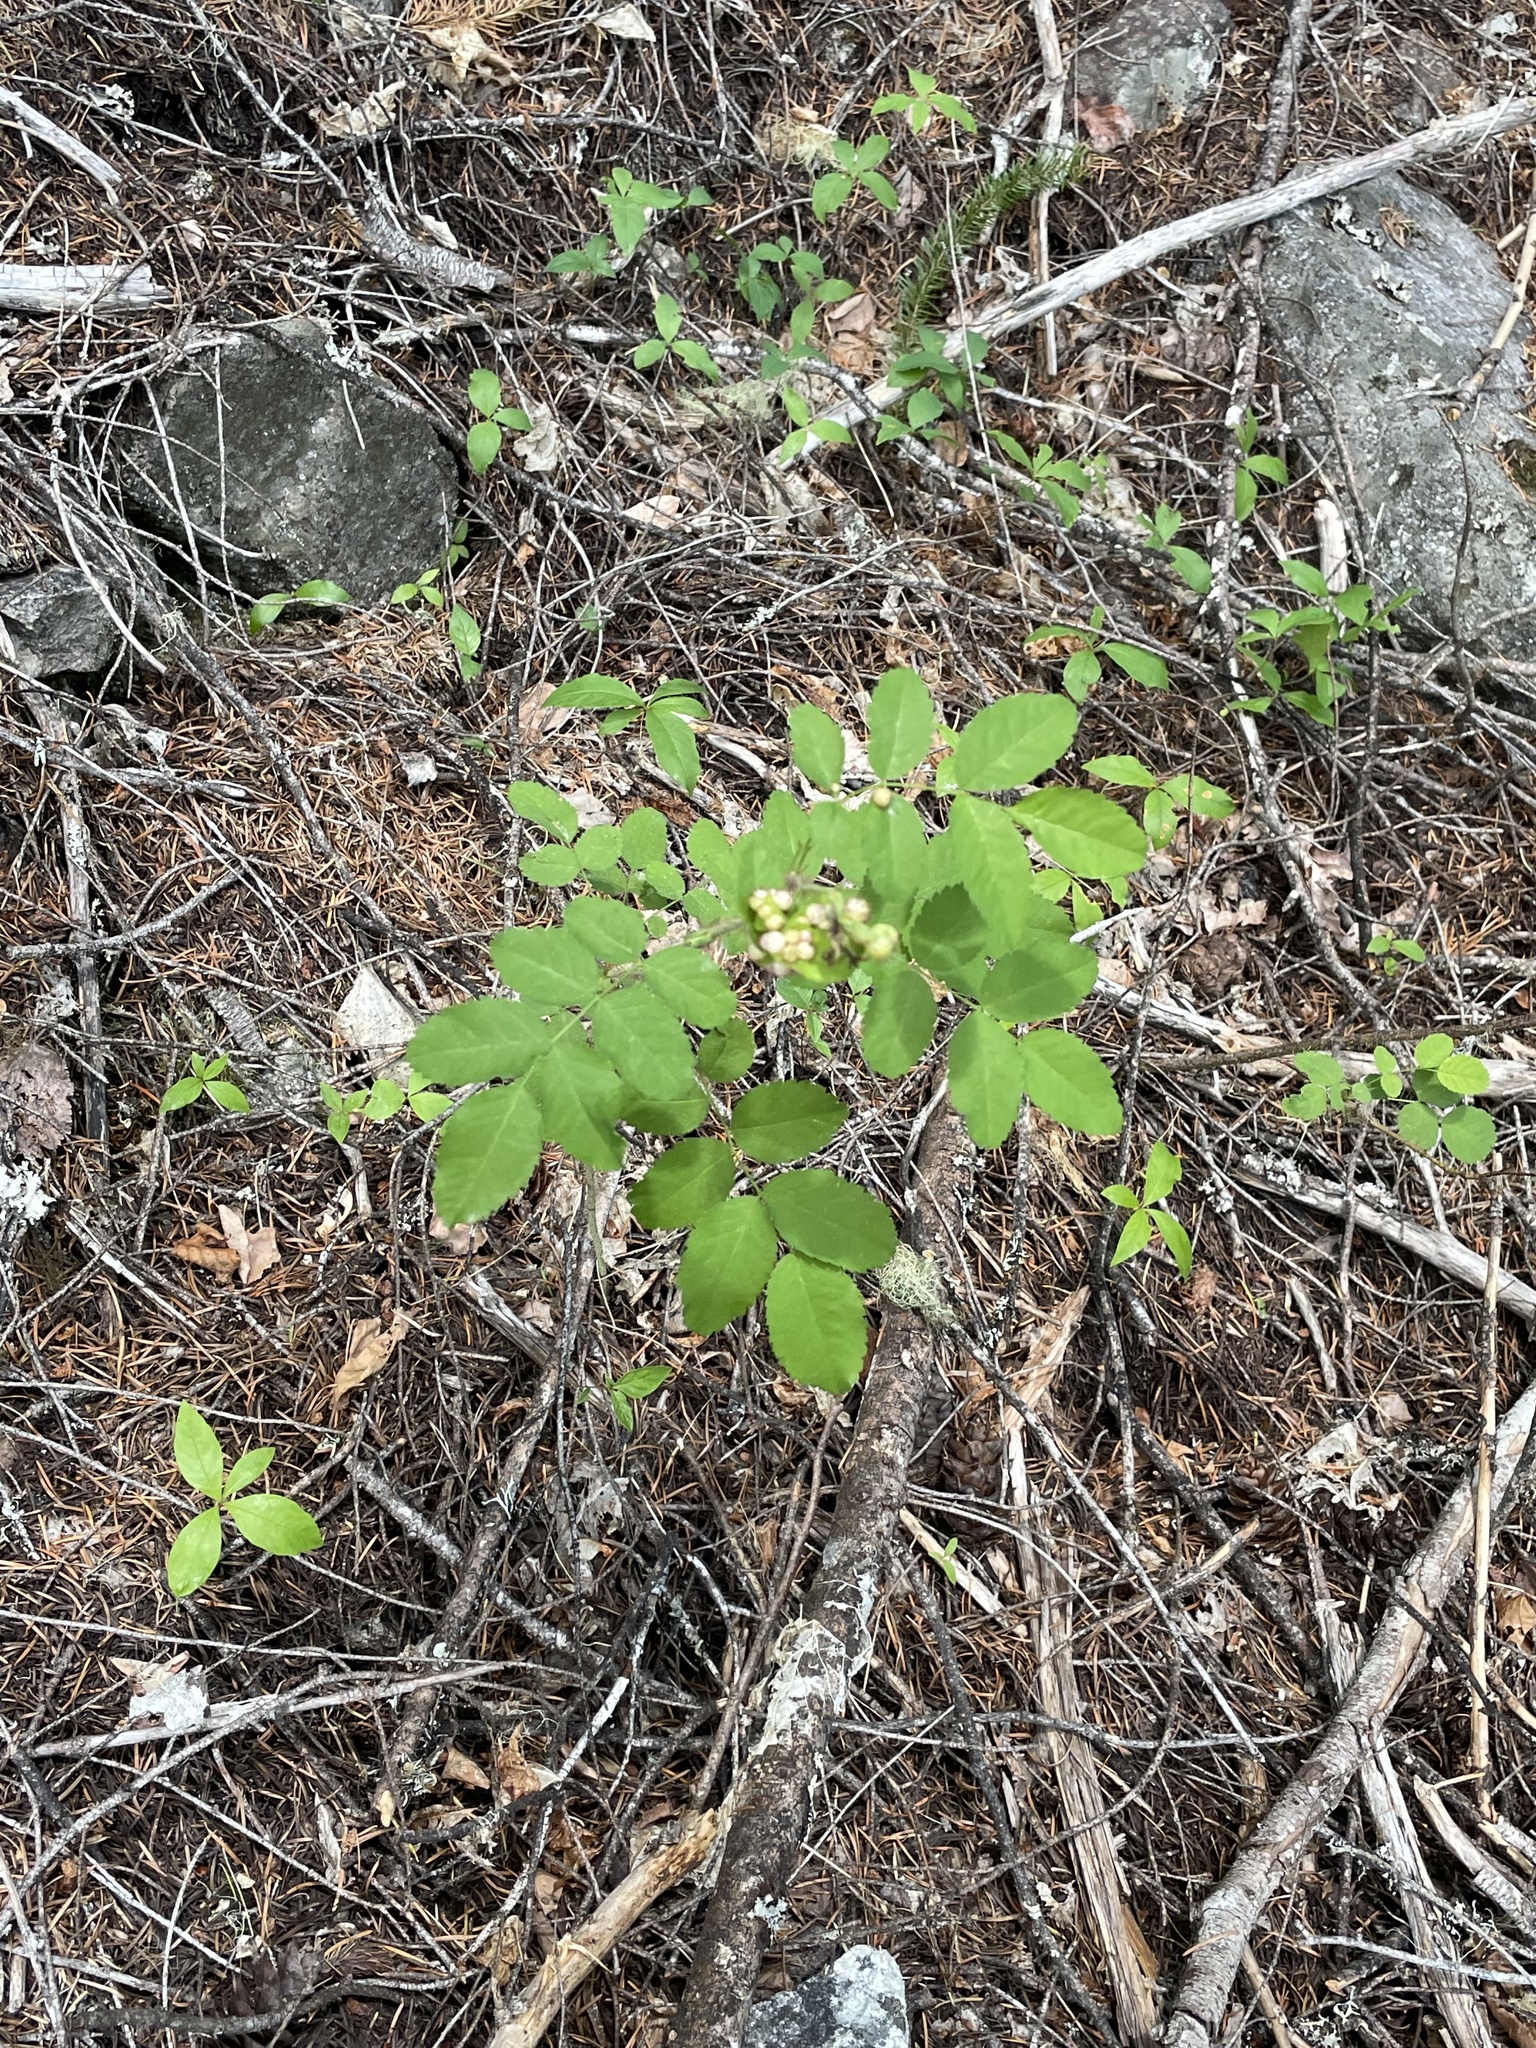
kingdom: Animalia
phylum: Arthropoda
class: Insecta
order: Hymenoptera
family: Cynipidae
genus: Diplolepis
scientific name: Diplolepis polita
